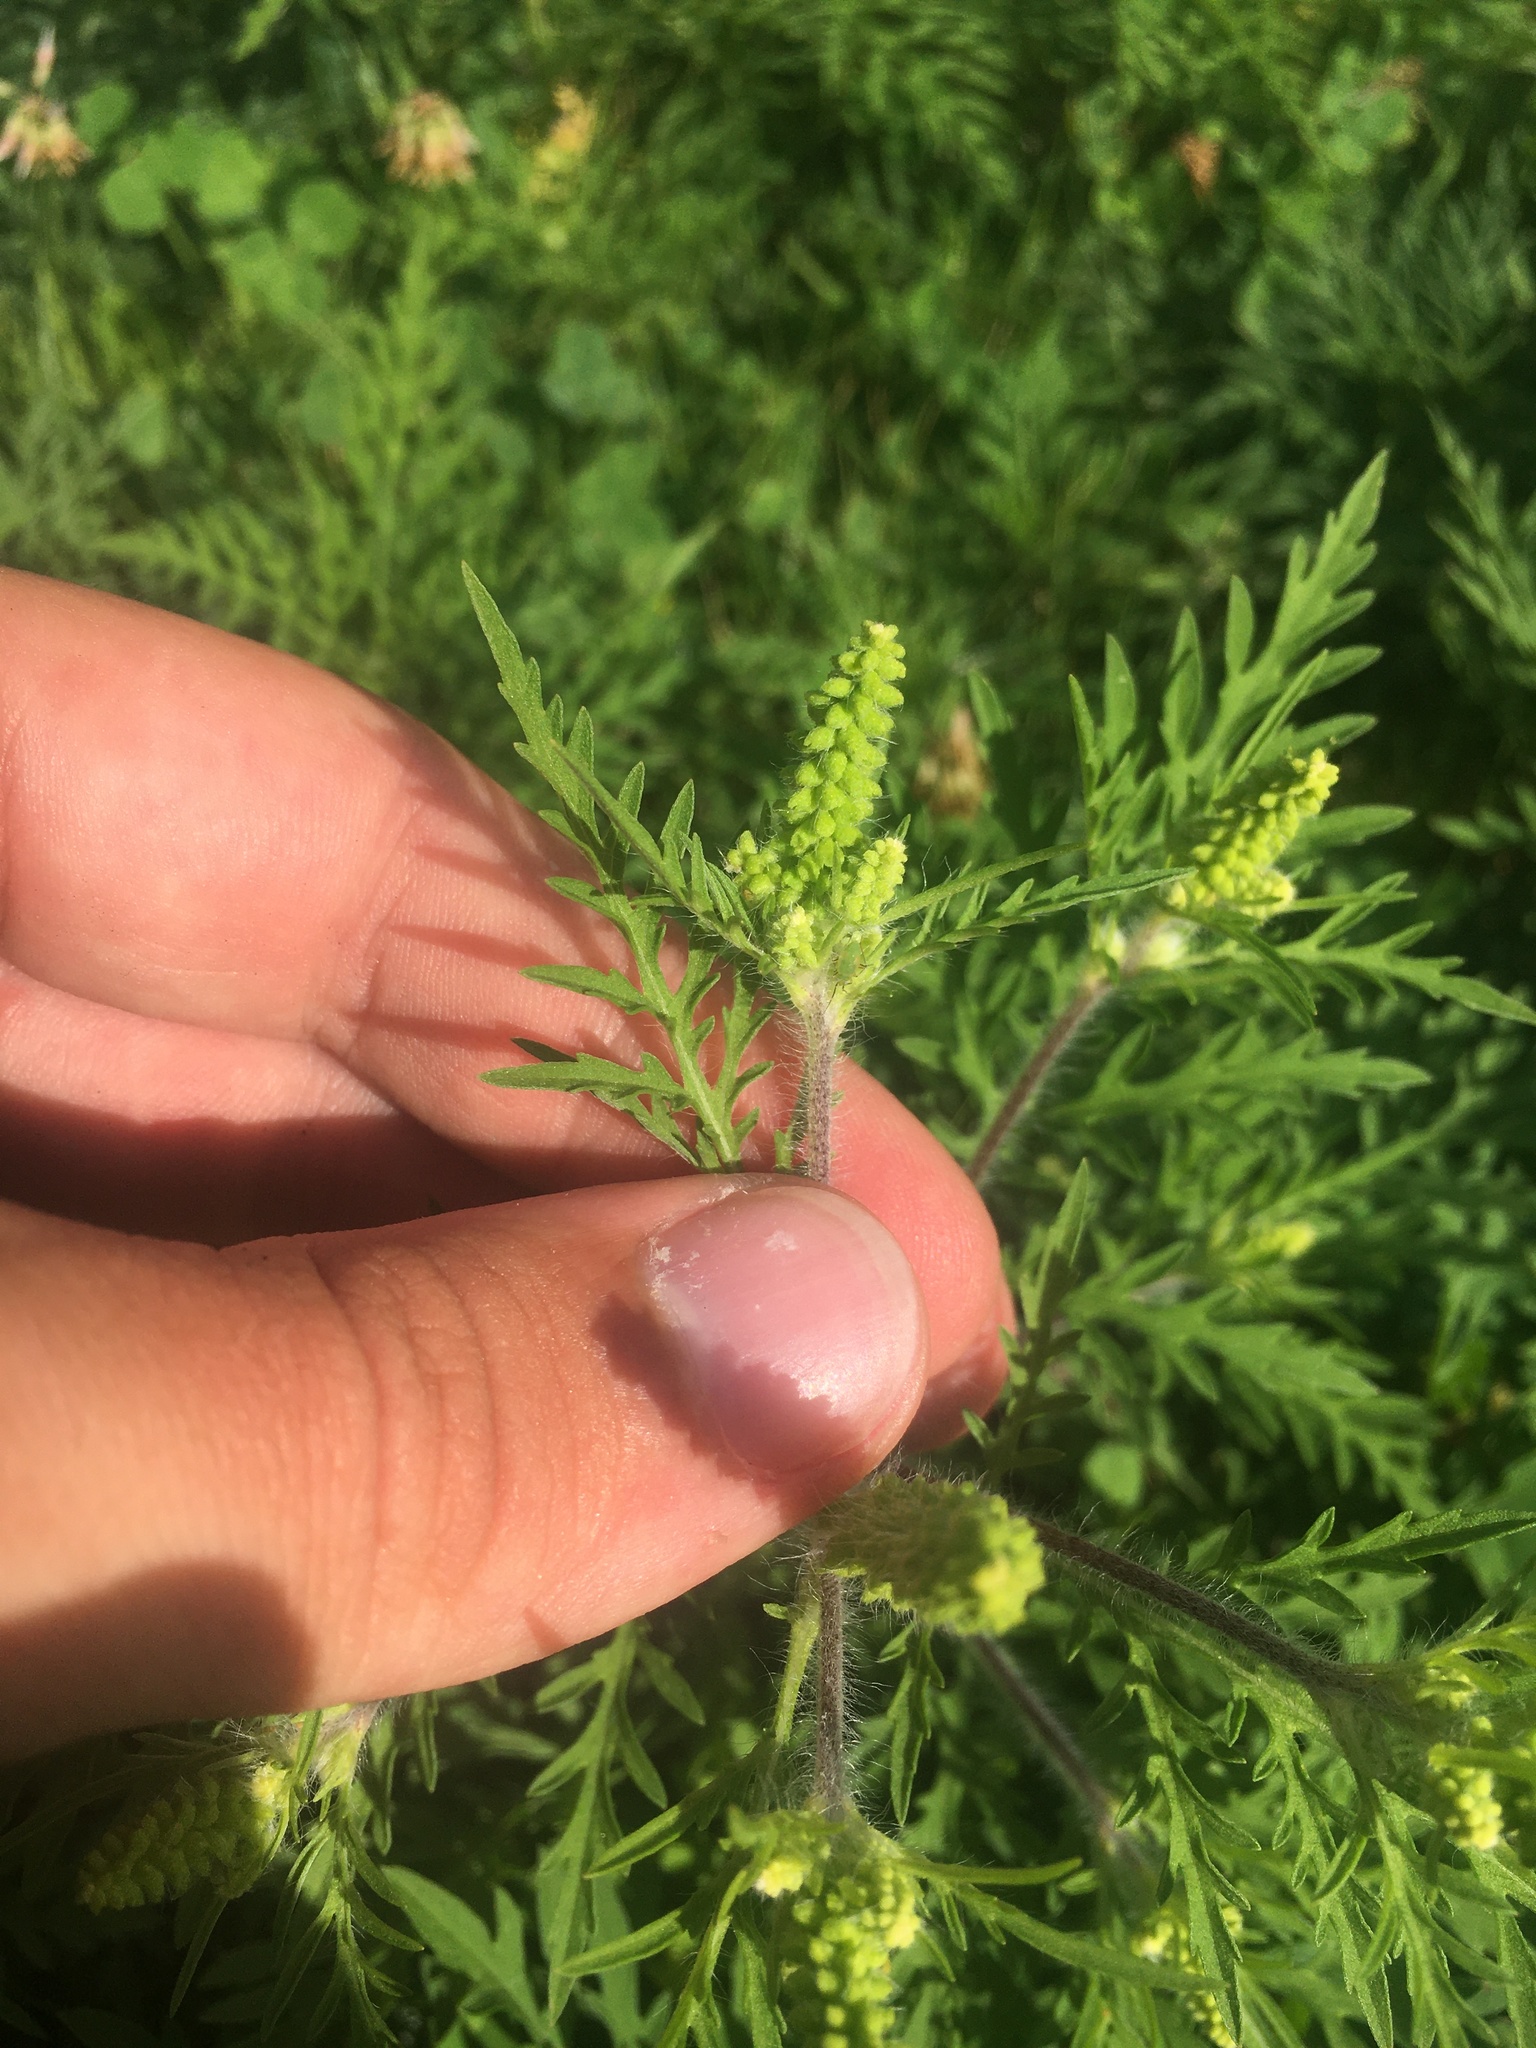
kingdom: Plantae
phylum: Tracheophyta
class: Magnoliopsida
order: Asterales
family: Asteraceae
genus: Ambrosia
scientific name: Ambrosia artemisiifolia
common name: Annual ragweed
